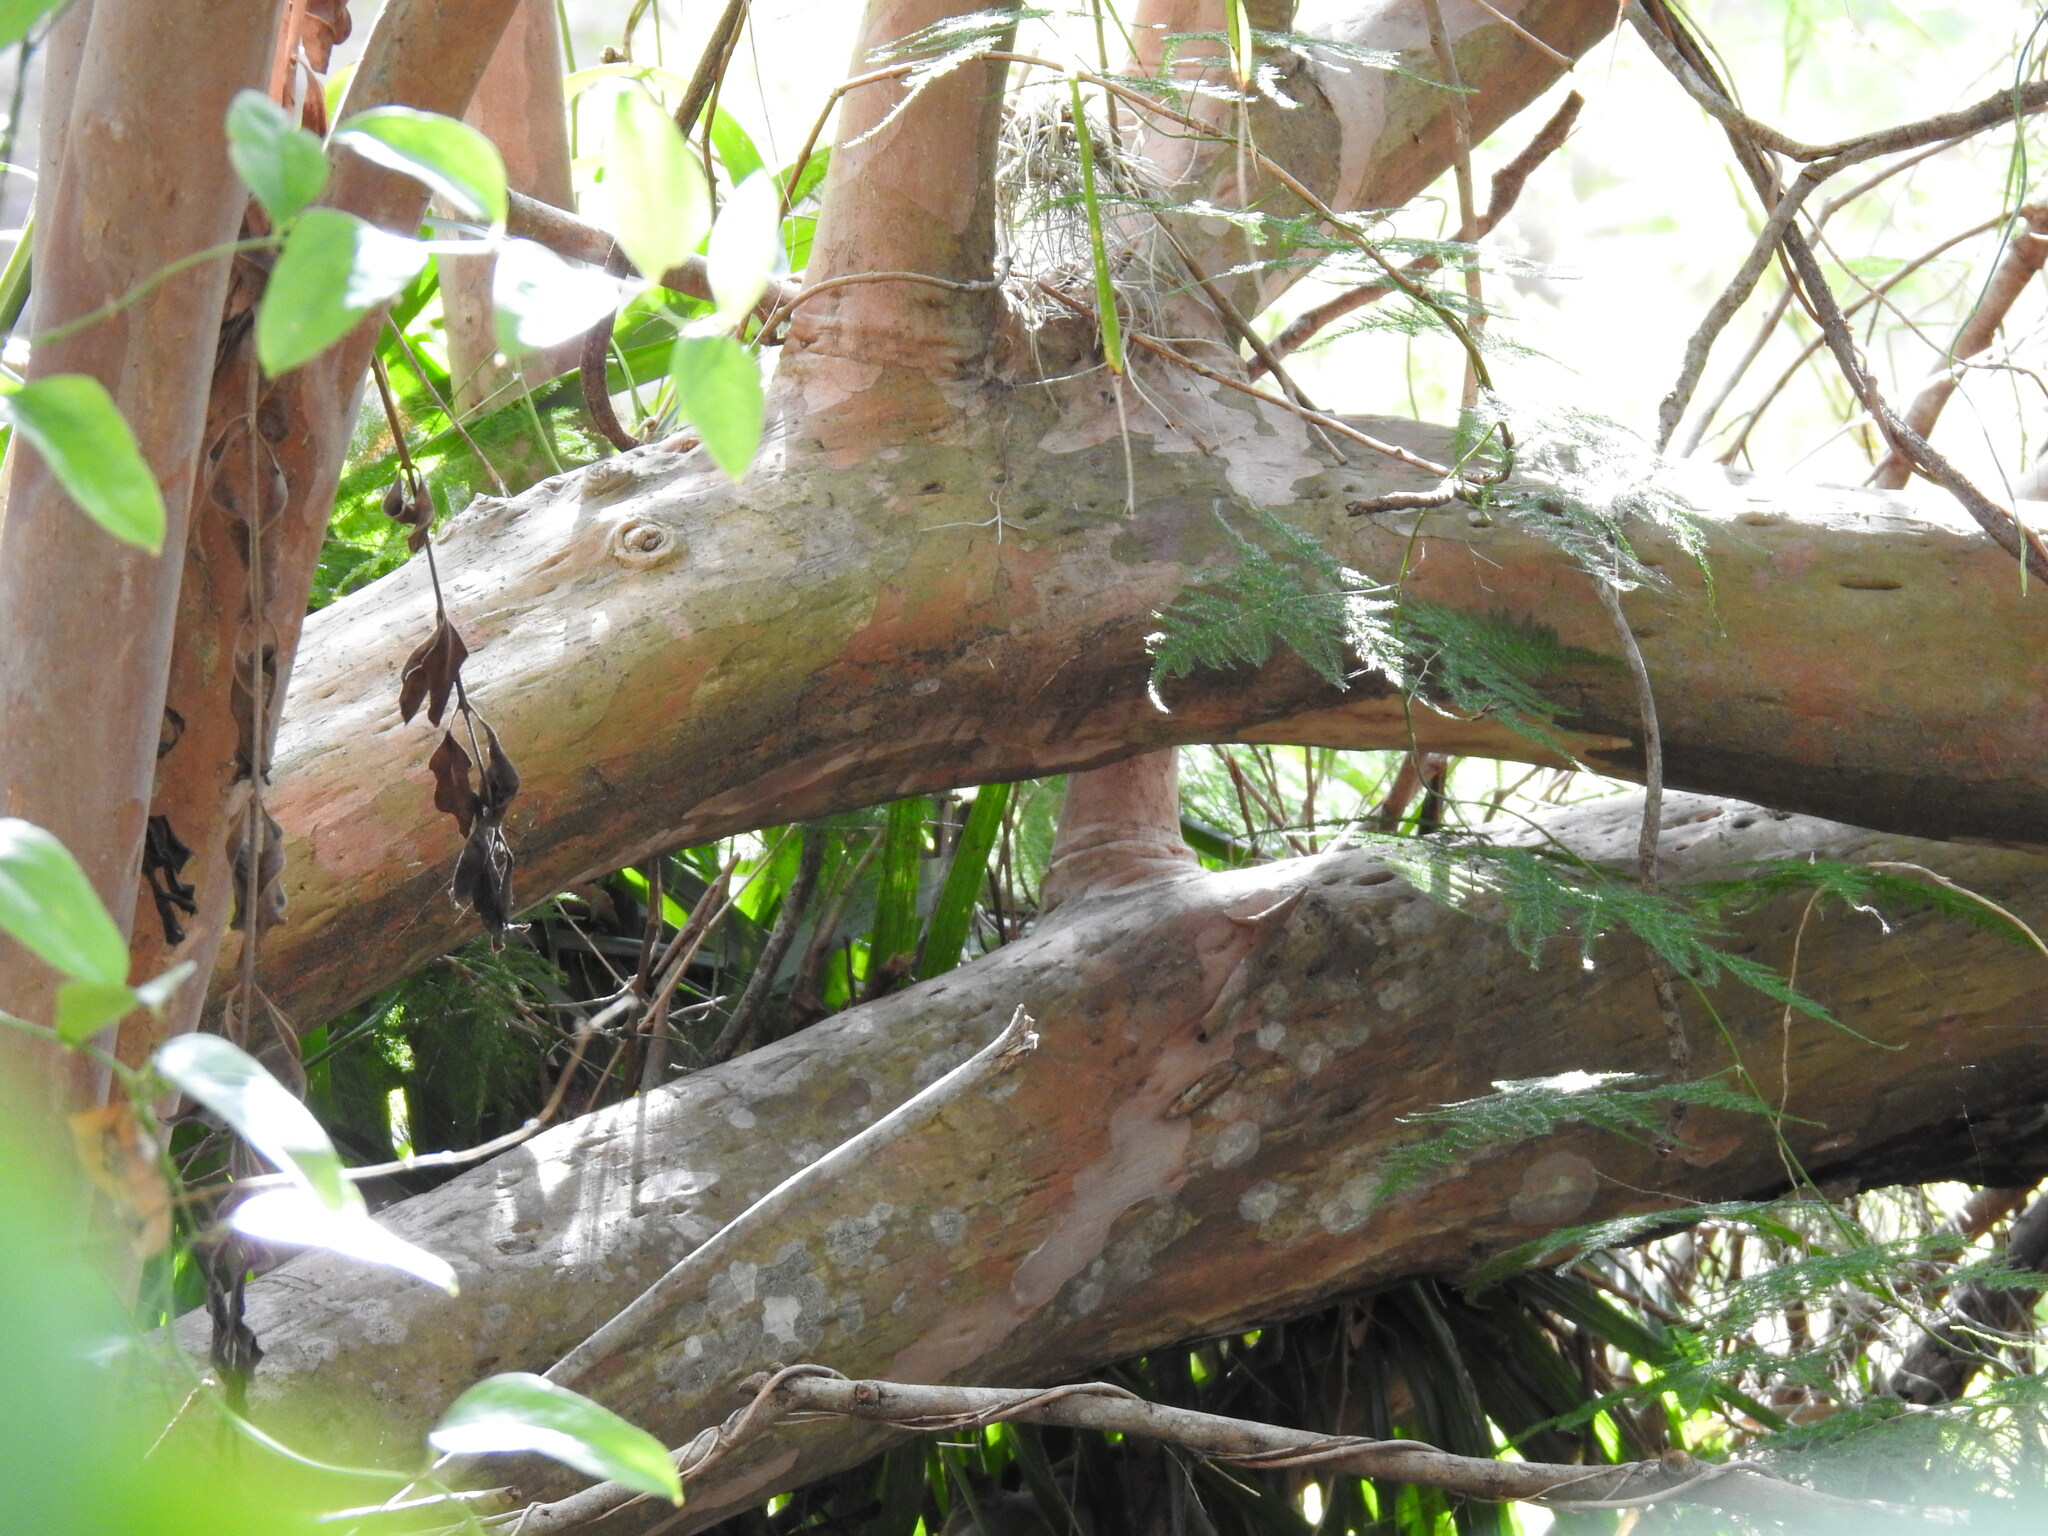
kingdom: Plantae
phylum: Tracheophyta
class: Magnoliopsida
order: Myrtales
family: Myrtaceae
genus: Psidium
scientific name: Psidium cattleianum
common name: Strawberry guava
